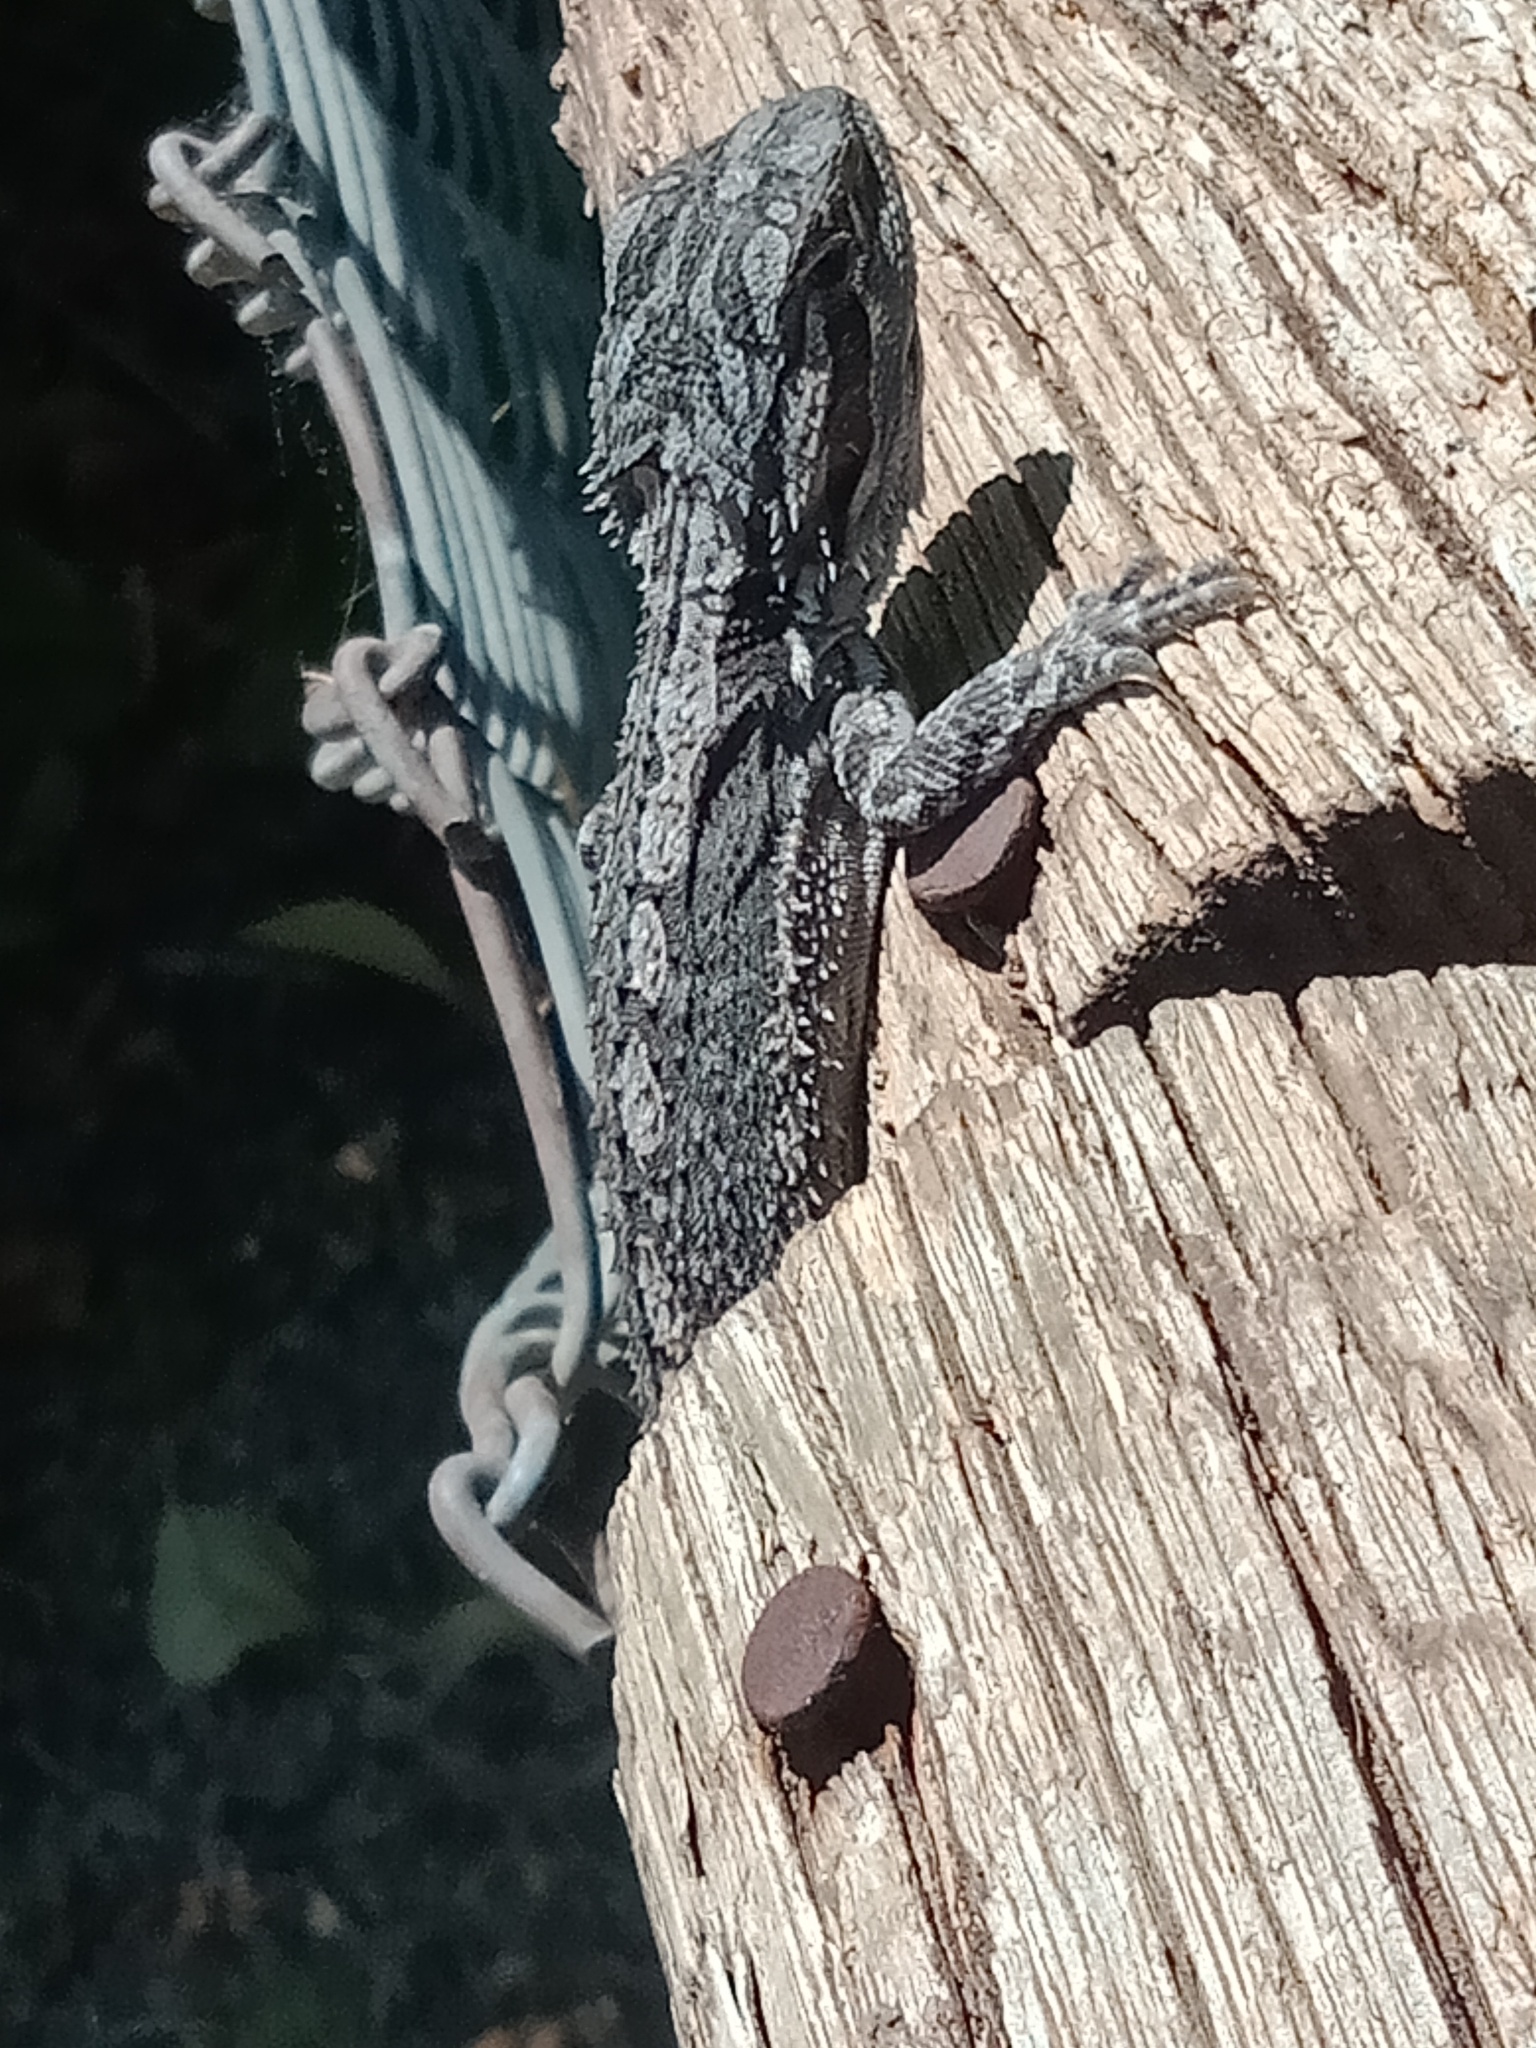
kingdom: Animalia
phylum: Chordata
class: Squamata
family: Agamidae
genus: Pogona
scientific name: Pogona barbata
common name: Bearded dragon
